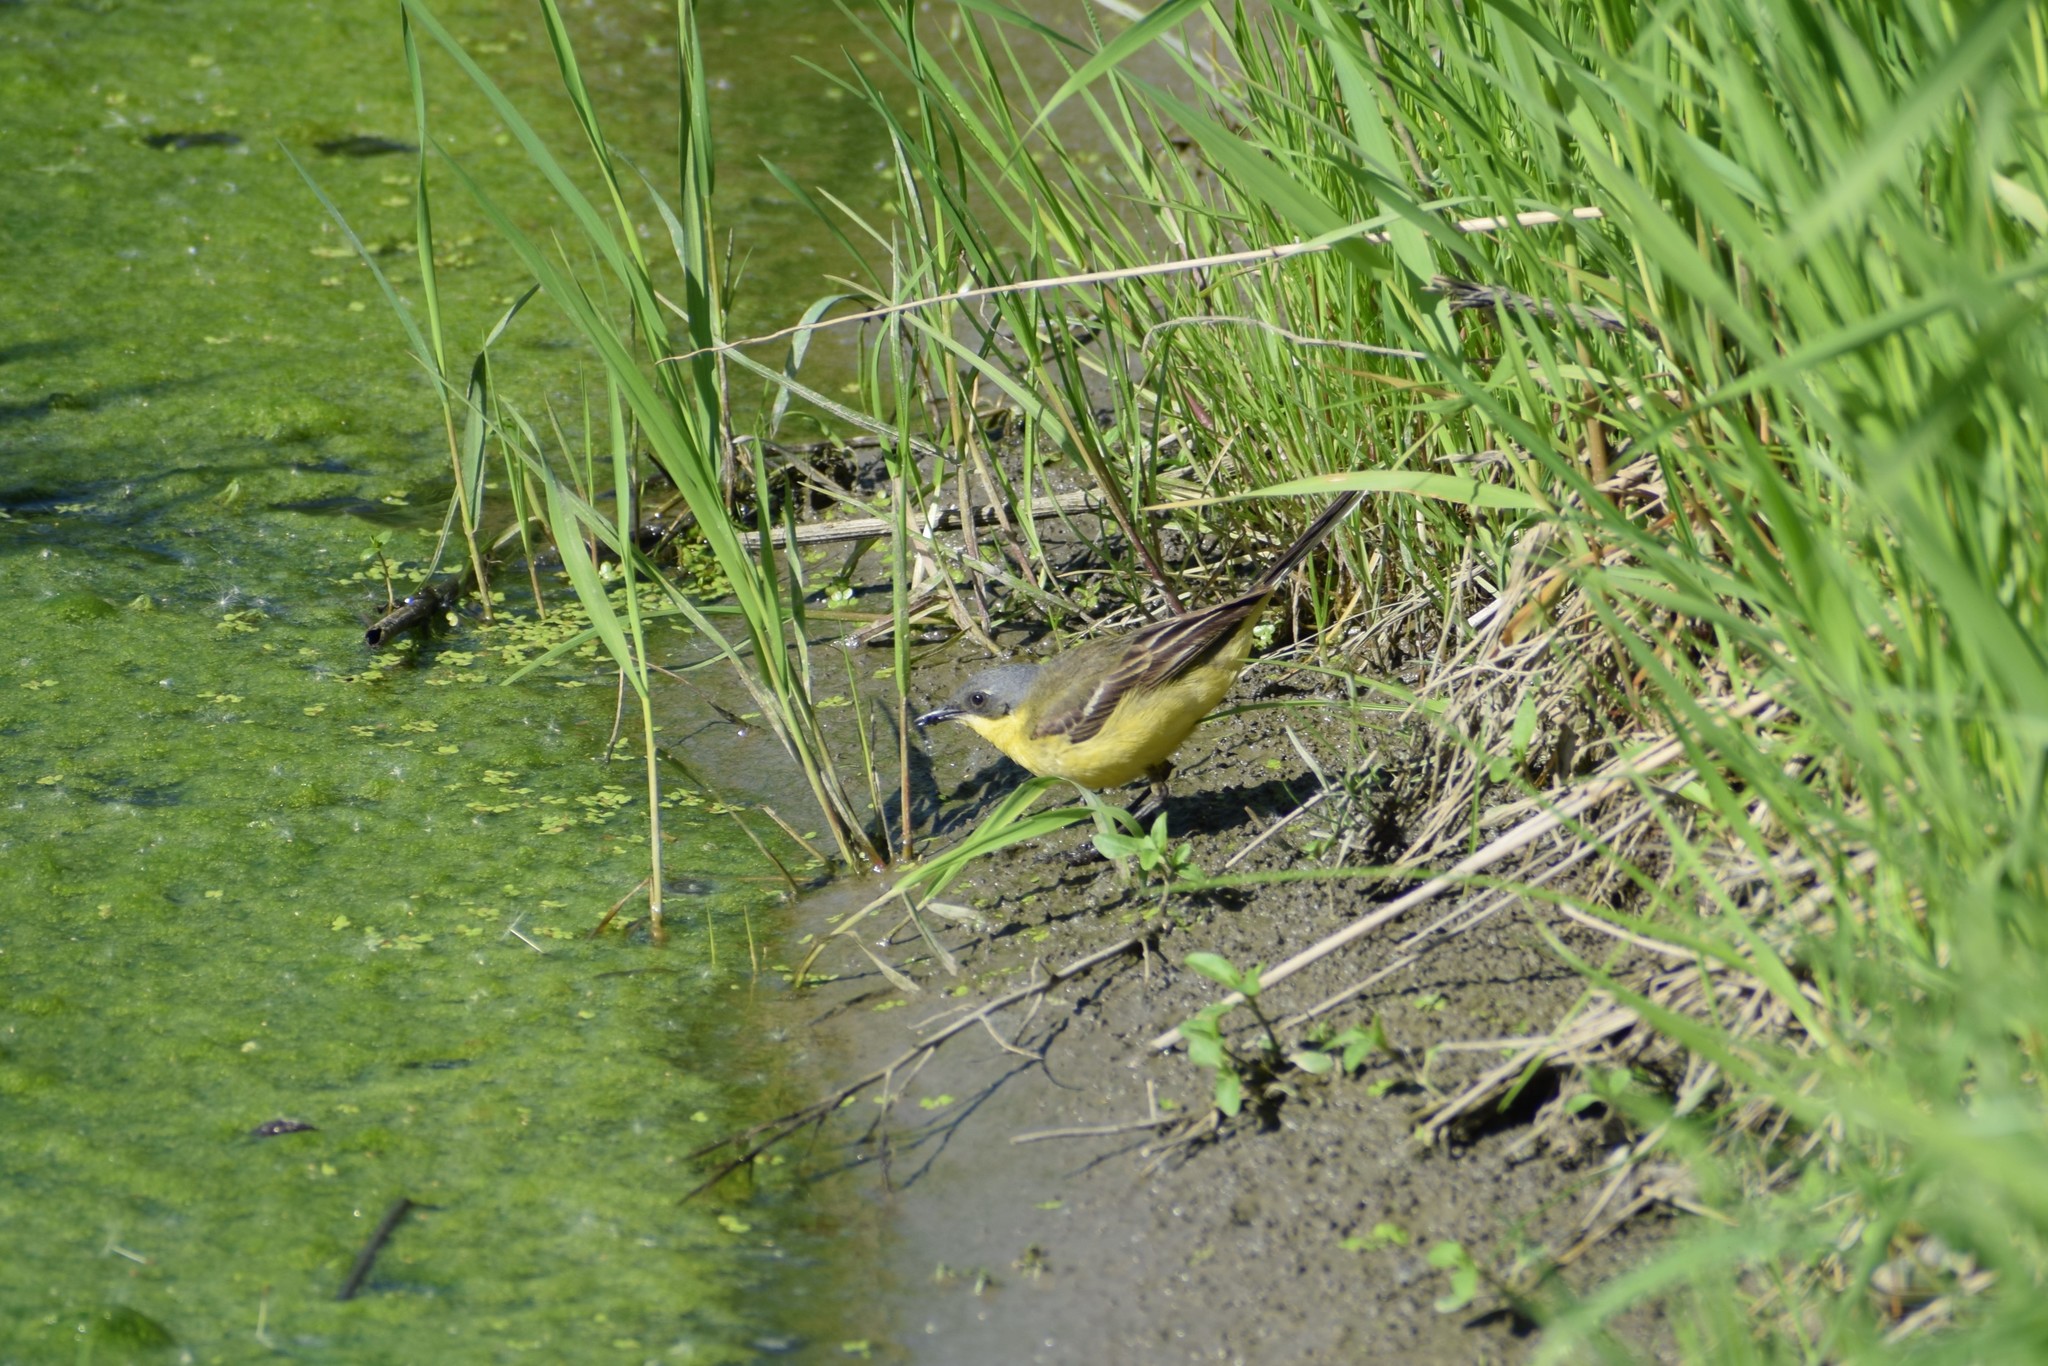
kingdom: Animalia
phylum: Chordata
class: Aves
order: Passeriformes
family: Motacillidae
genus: Motacilla
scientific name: Motacilla flava
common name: Western yellow wagtail
